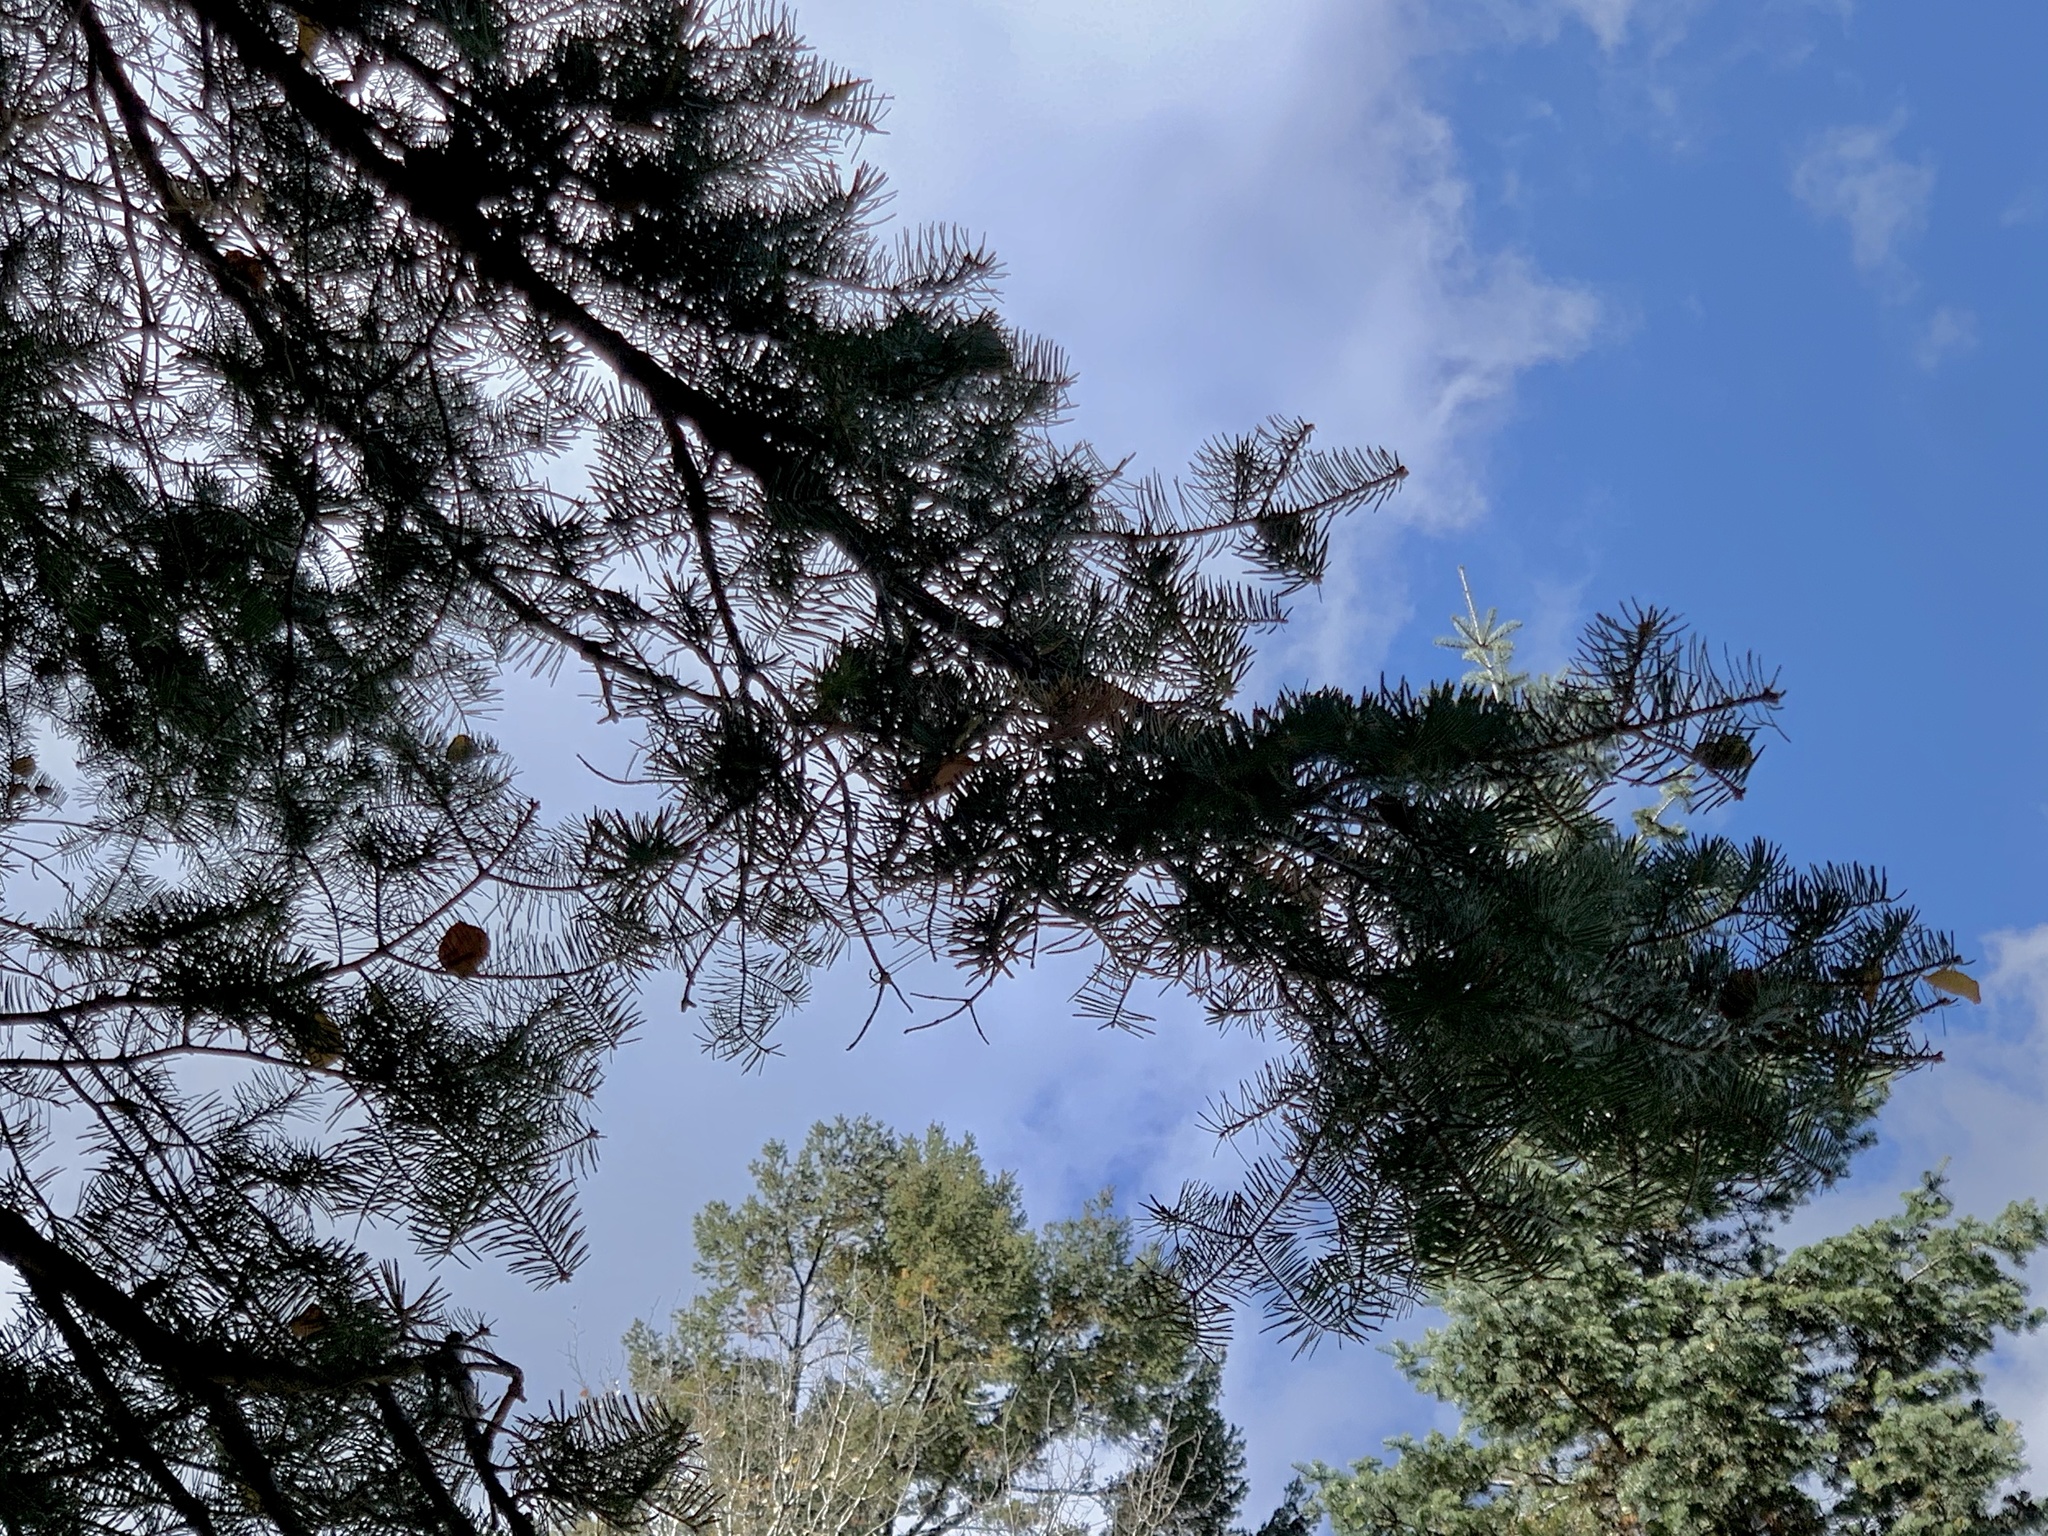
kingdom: Plantae
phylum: Tracheophyta
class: Pinopsida
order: Pinales
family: Pinaceae
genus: Abies
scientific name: Abies concolor
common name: Colorado fir
